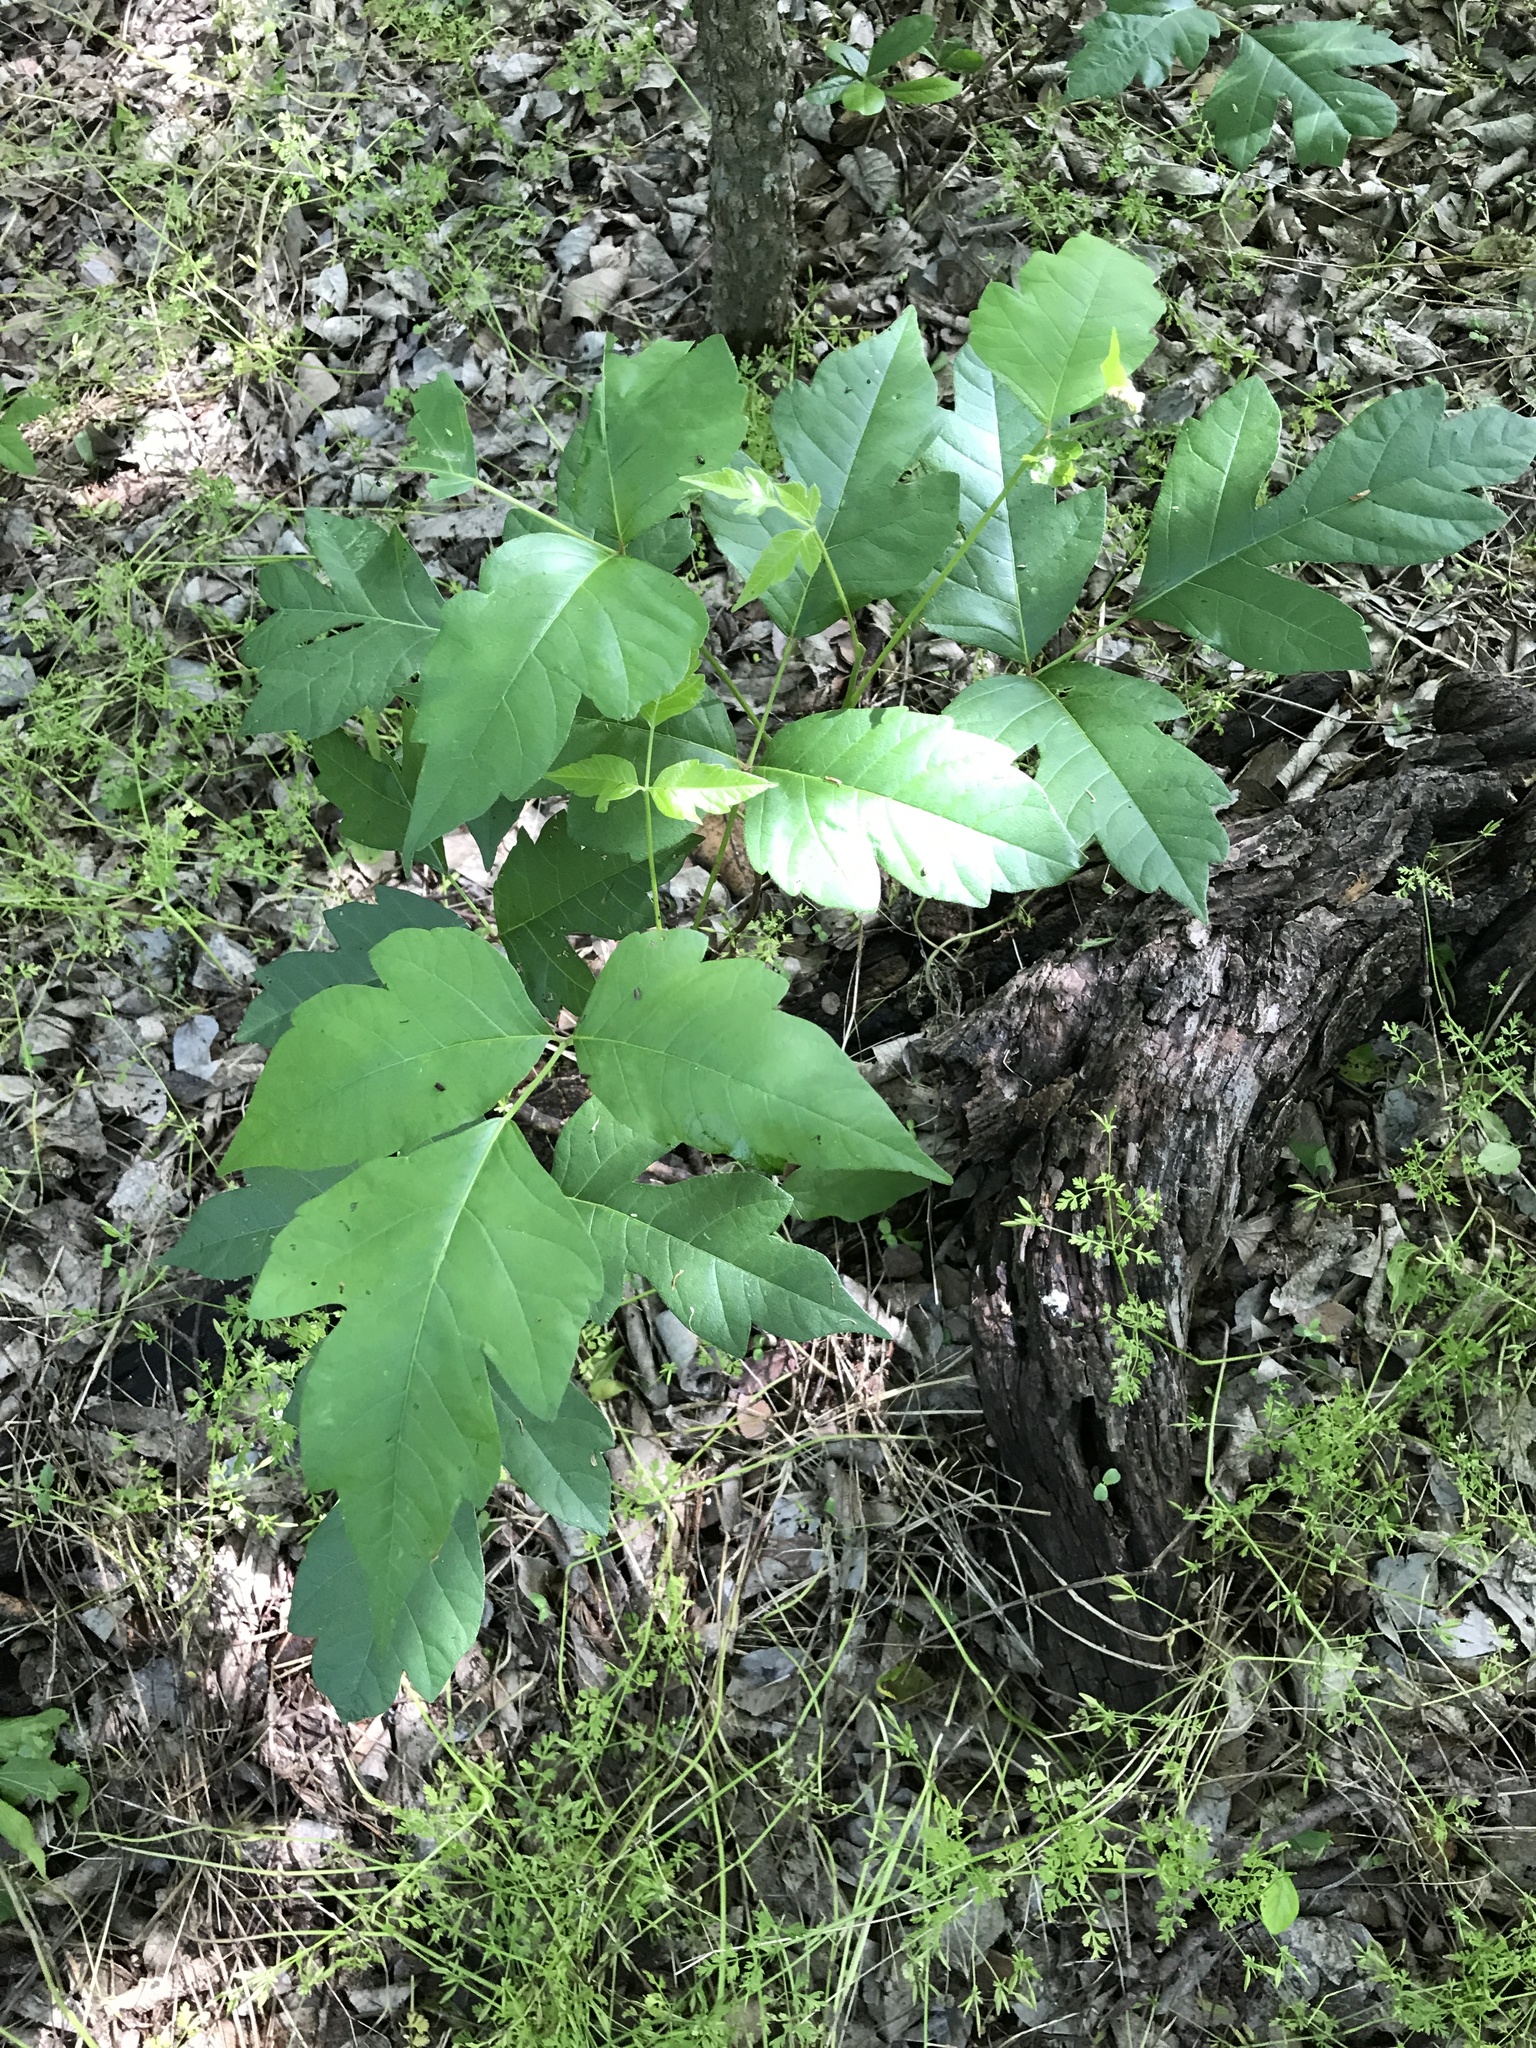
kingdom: Plantae
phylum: Tracheophyta
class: Magnoliopsida
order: Sapindales
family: Anacardiaceae
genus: Toxicodendron
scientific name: Toxicodendron radicans
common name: Poison ivy
